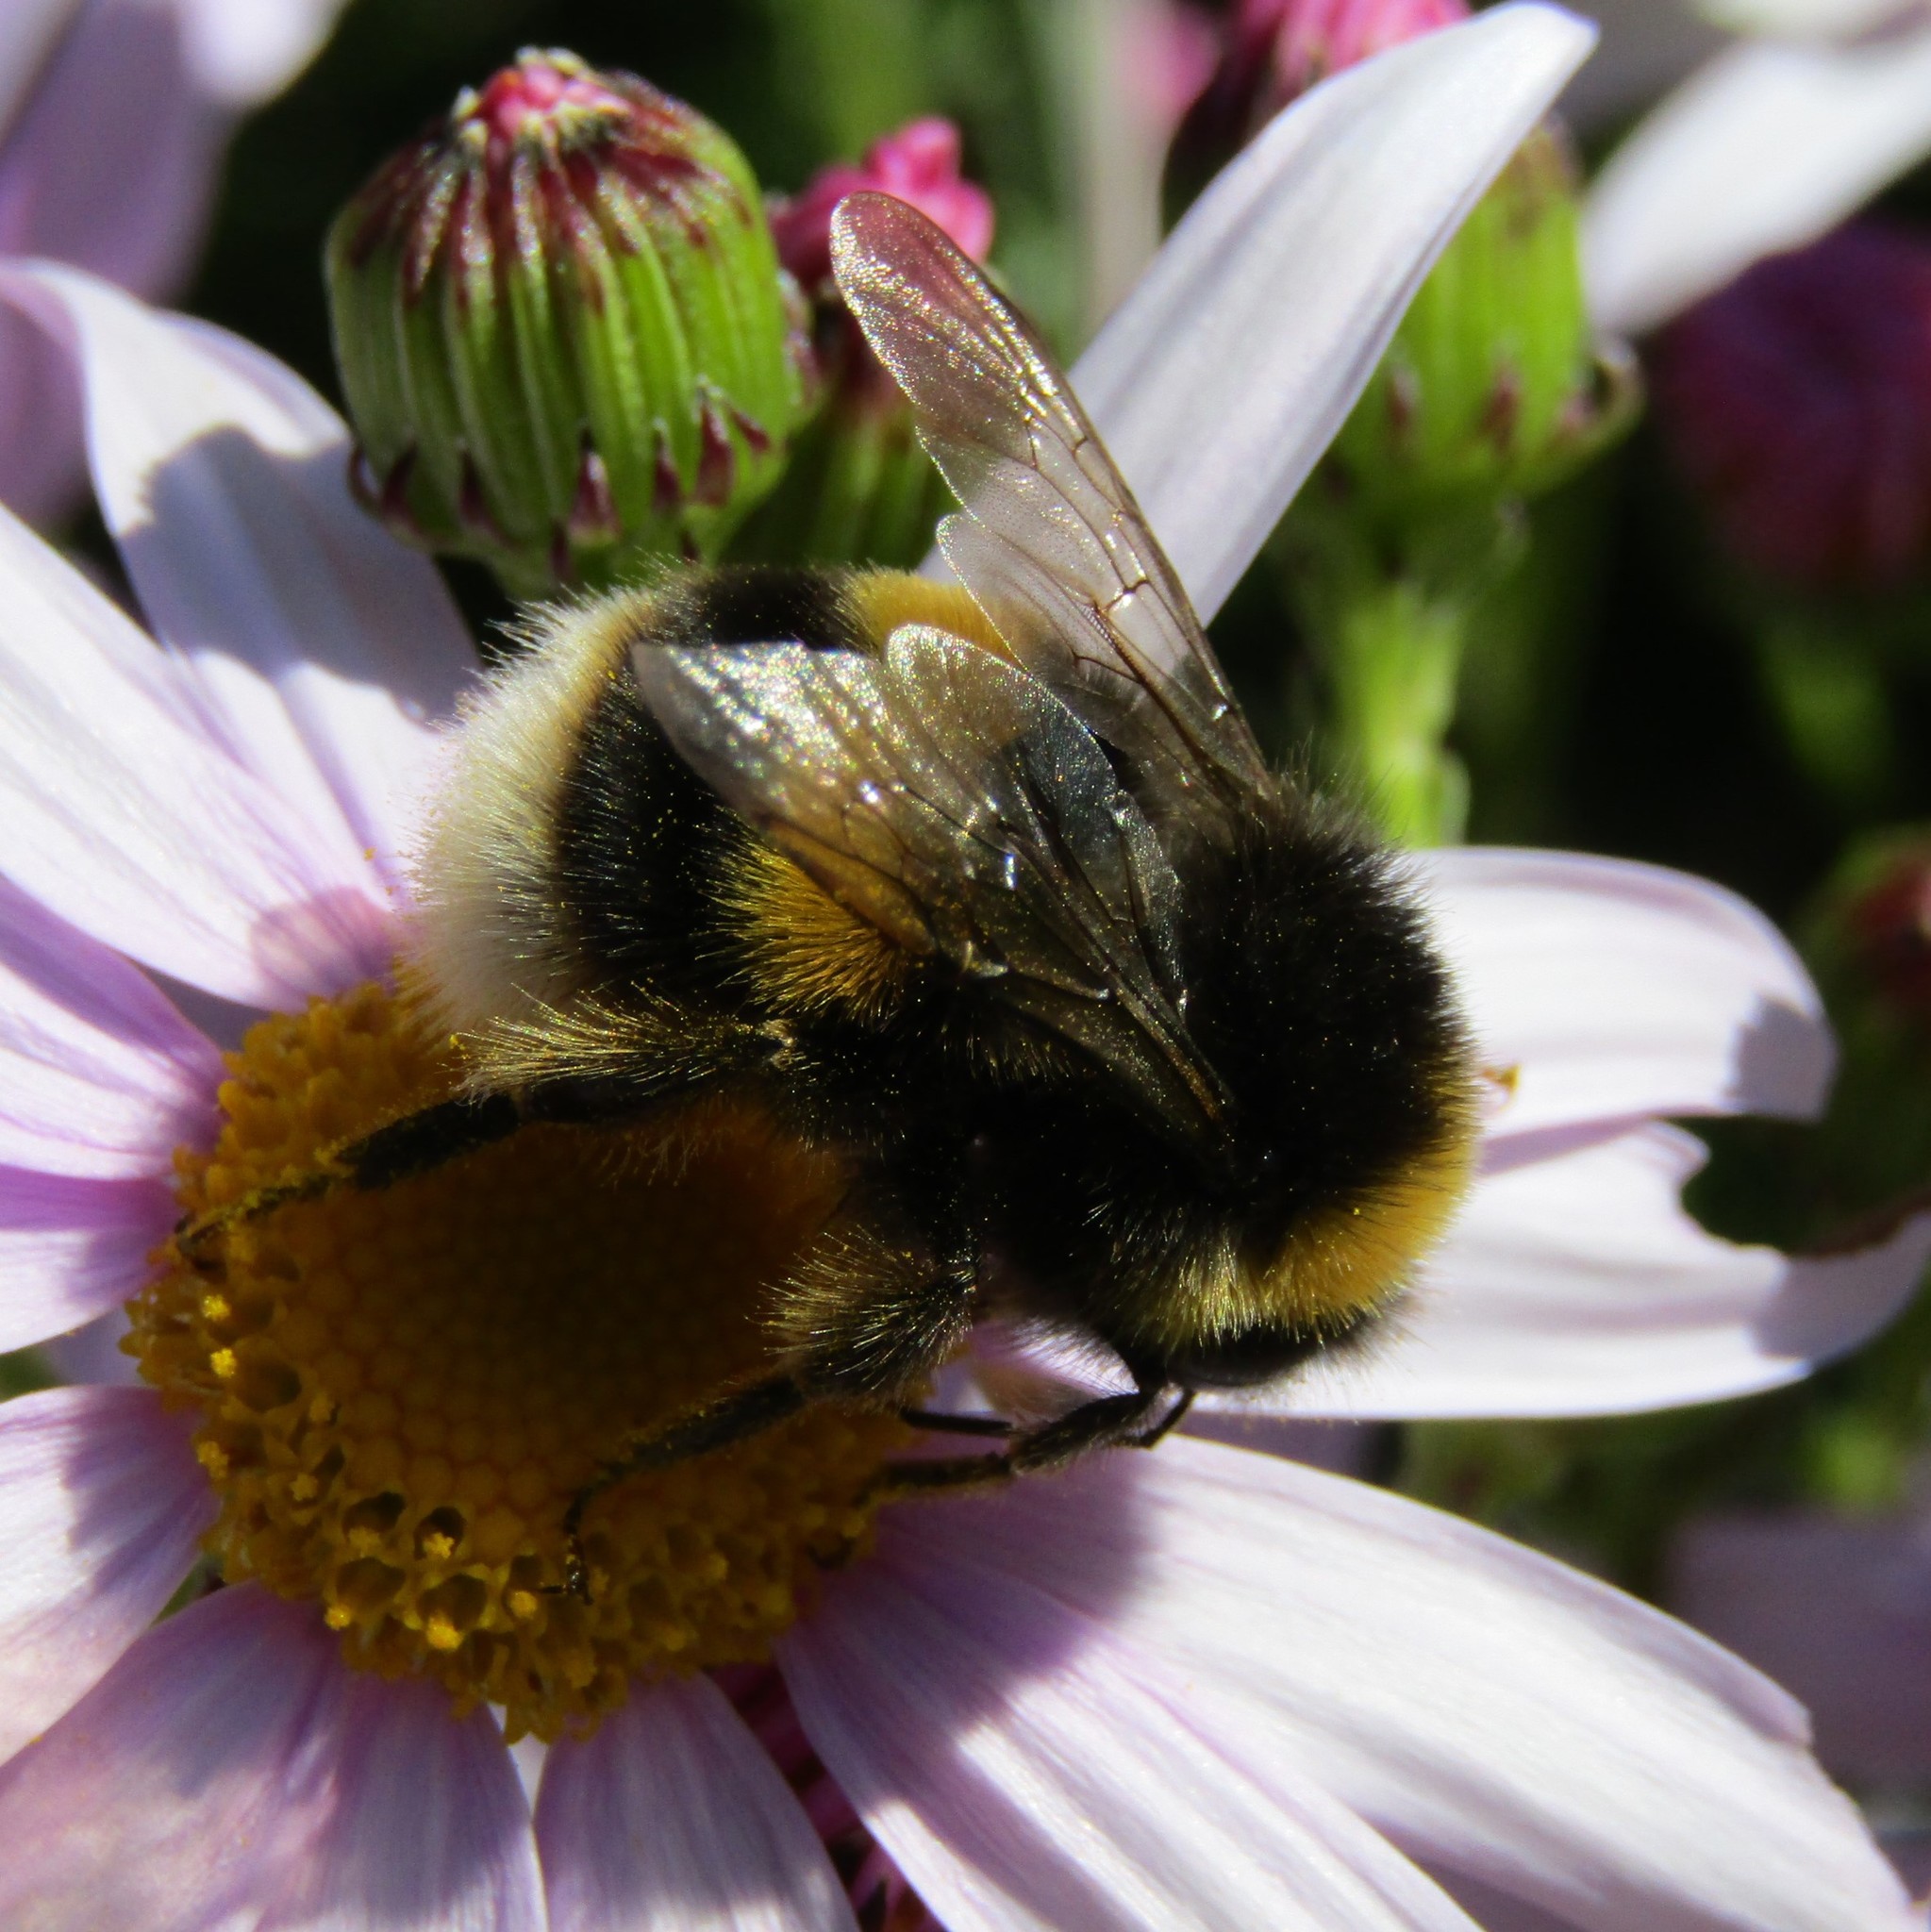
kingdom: Animalia
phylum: Arthropoda
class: Insecta
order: Hymenoptera
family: Apidae
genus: Bombus
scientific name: Bombus terrestris
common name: Buff-tailed bumblebee
